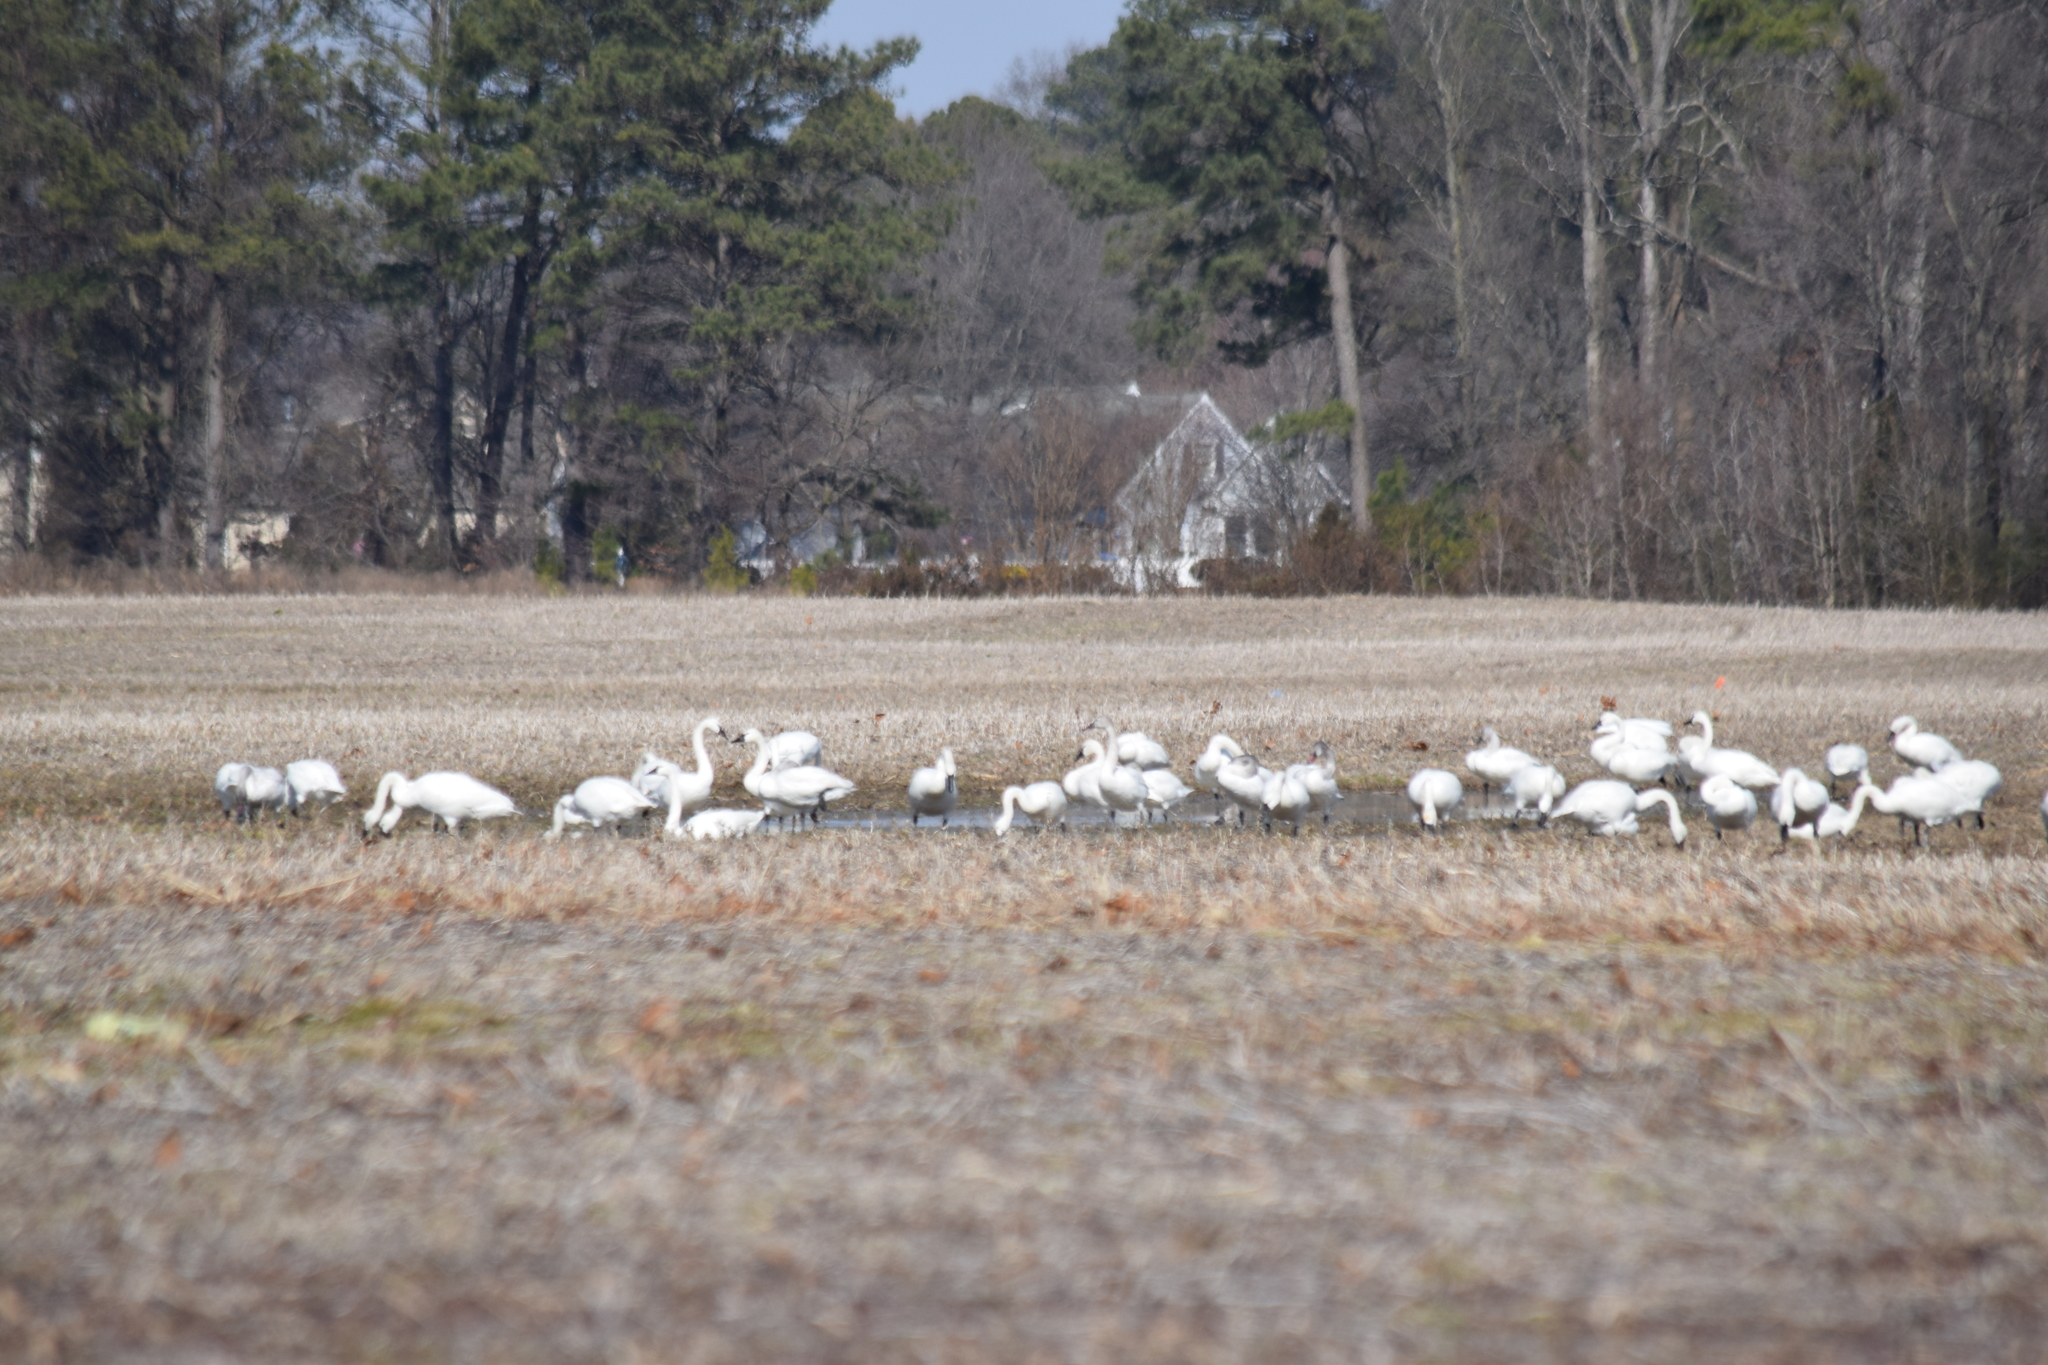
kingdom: Animalia
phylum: Chordata
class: Aves
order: Anseriformes
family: Anatidae
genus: Cygnus
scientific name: Cygnus columbianus
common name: Tundra swan
